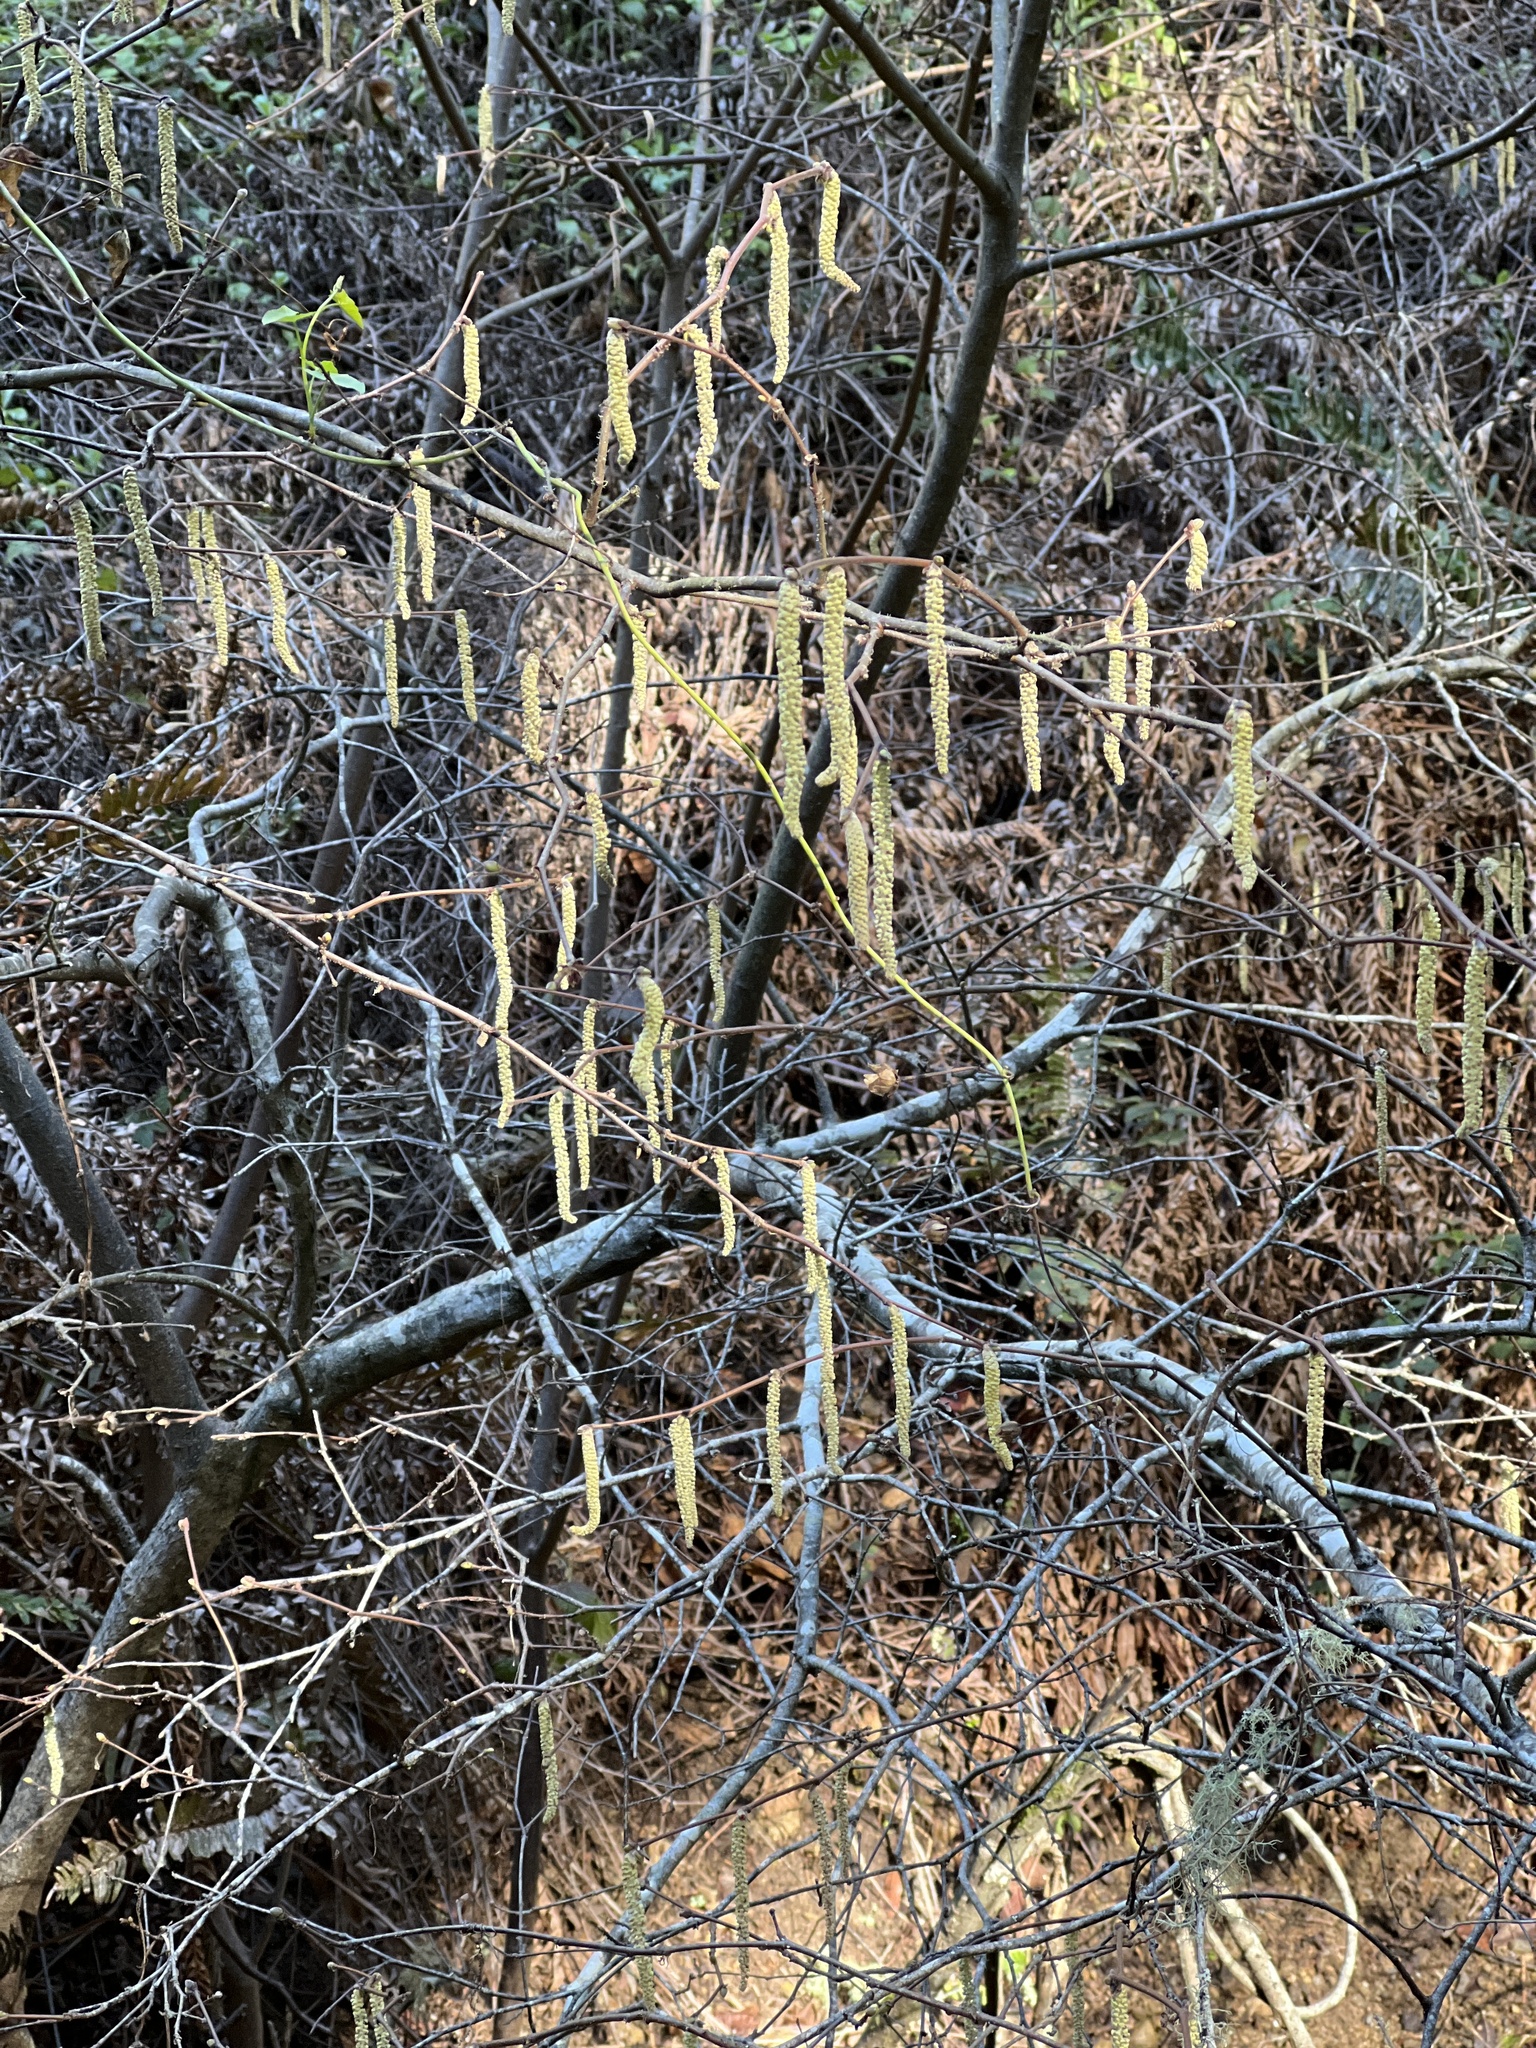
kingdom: Plantae
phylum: Tracheophyta
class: Magnoliopsida
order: Fagales
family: Betulaceae
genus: Corylus
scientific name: Corylus cornuta
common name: Beaked hazel
